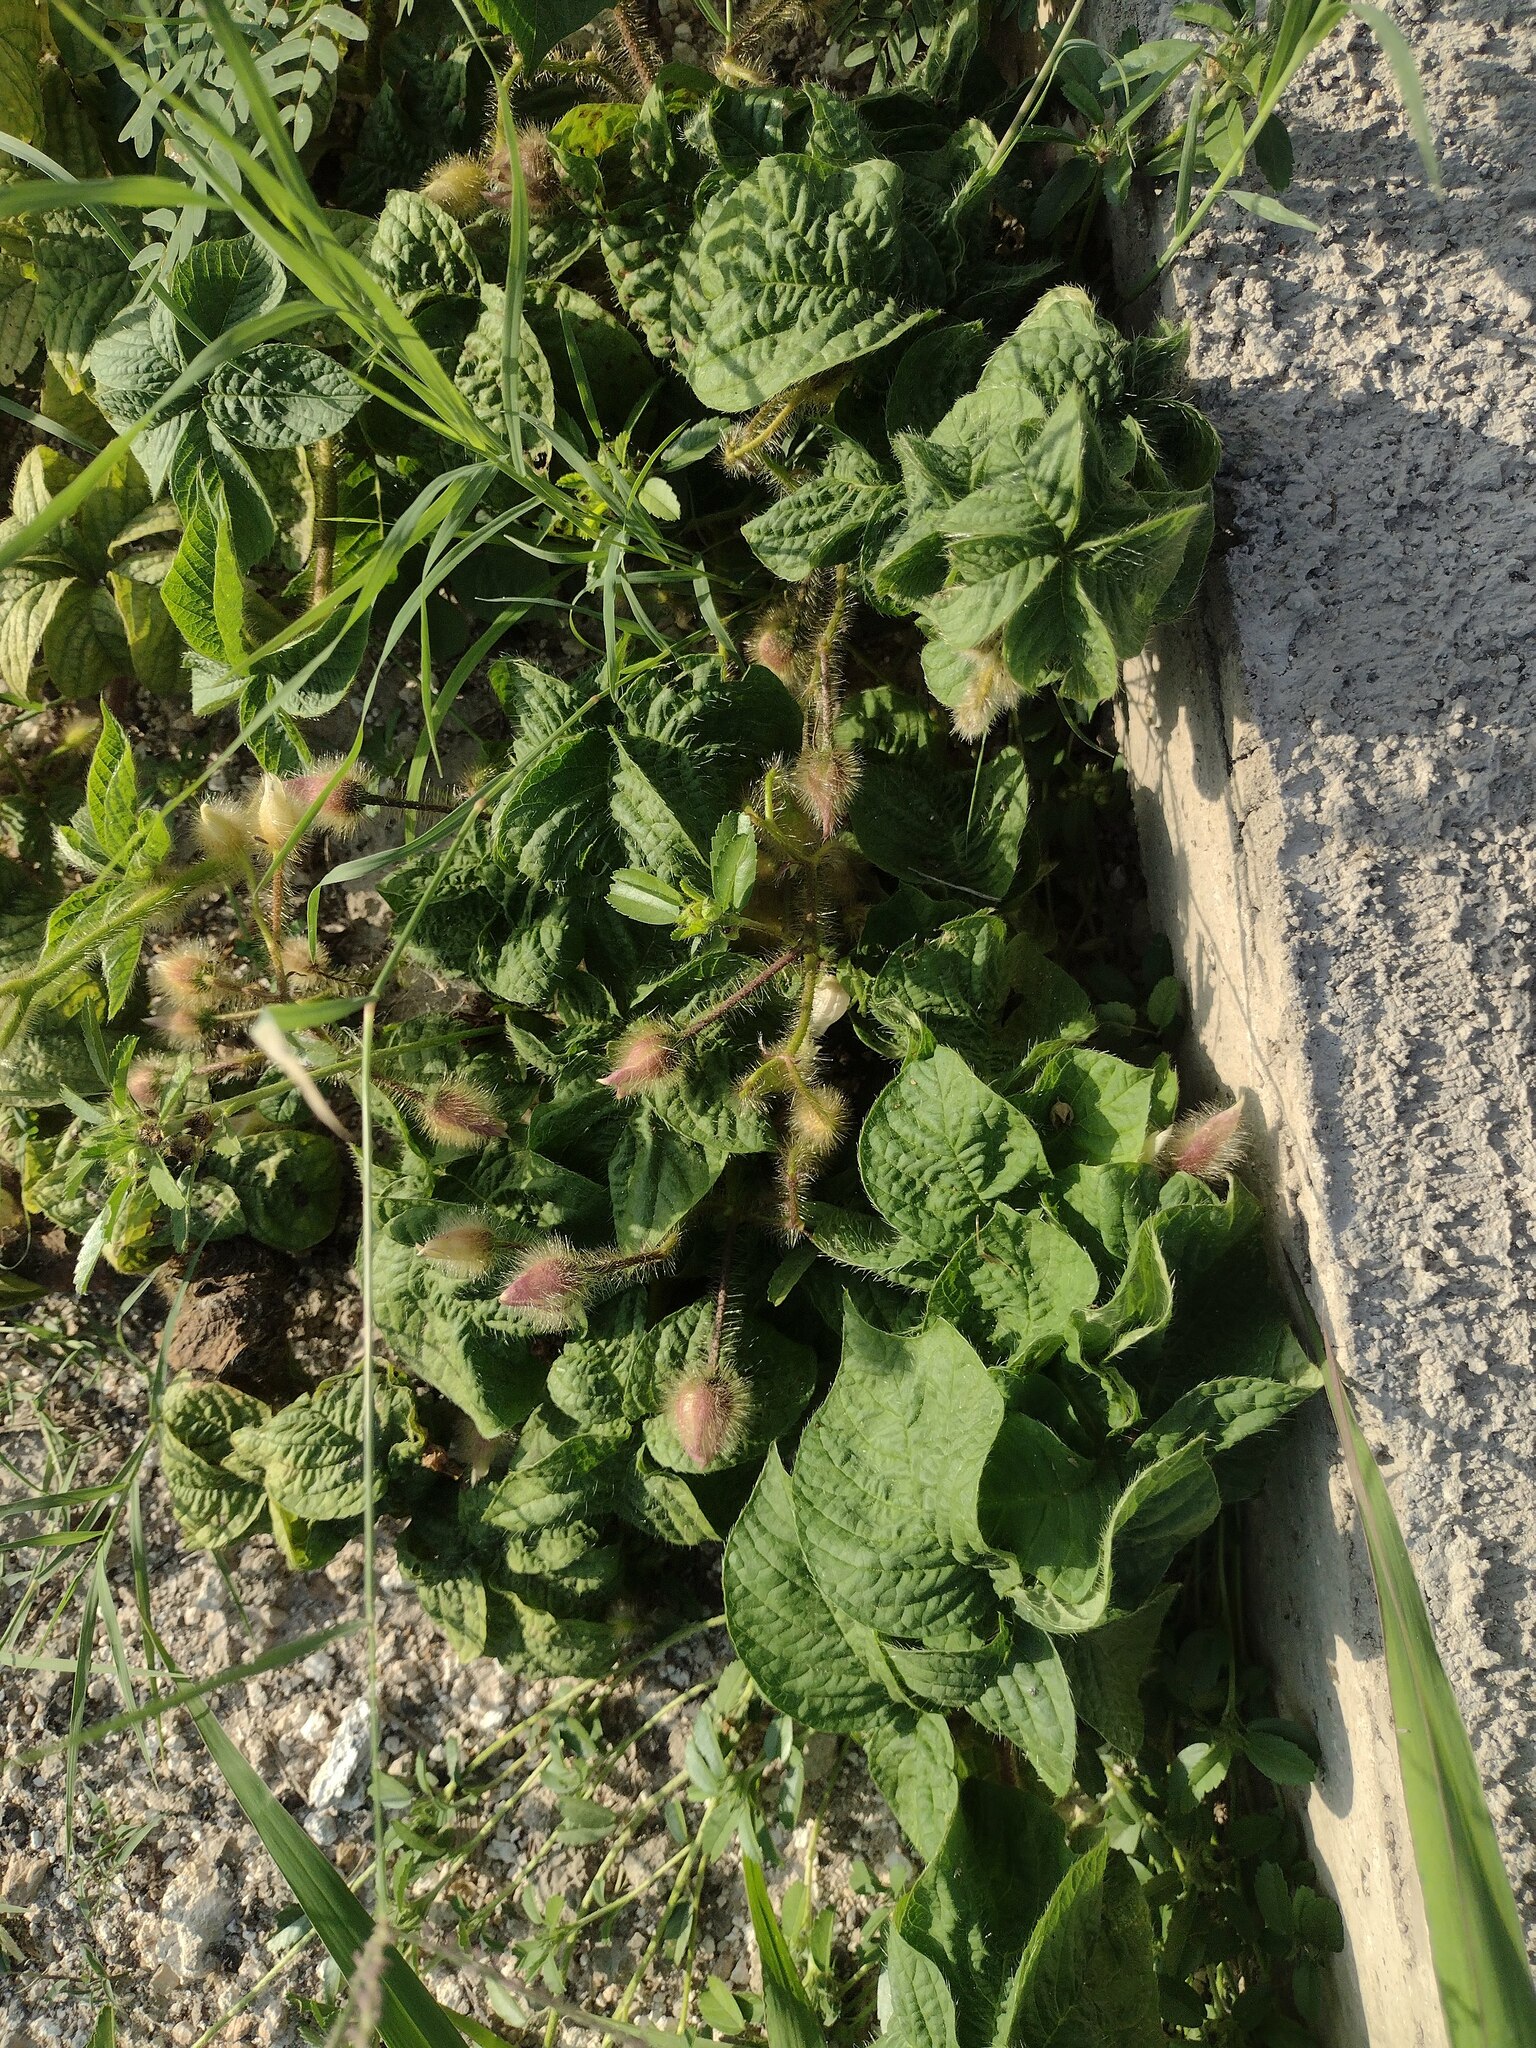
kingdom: Plantae
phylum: Tracheophyta
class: Magnoliopsida
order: Solanales
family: Convolvulaceae
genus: Distimake
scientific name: Distimake aegyptius
